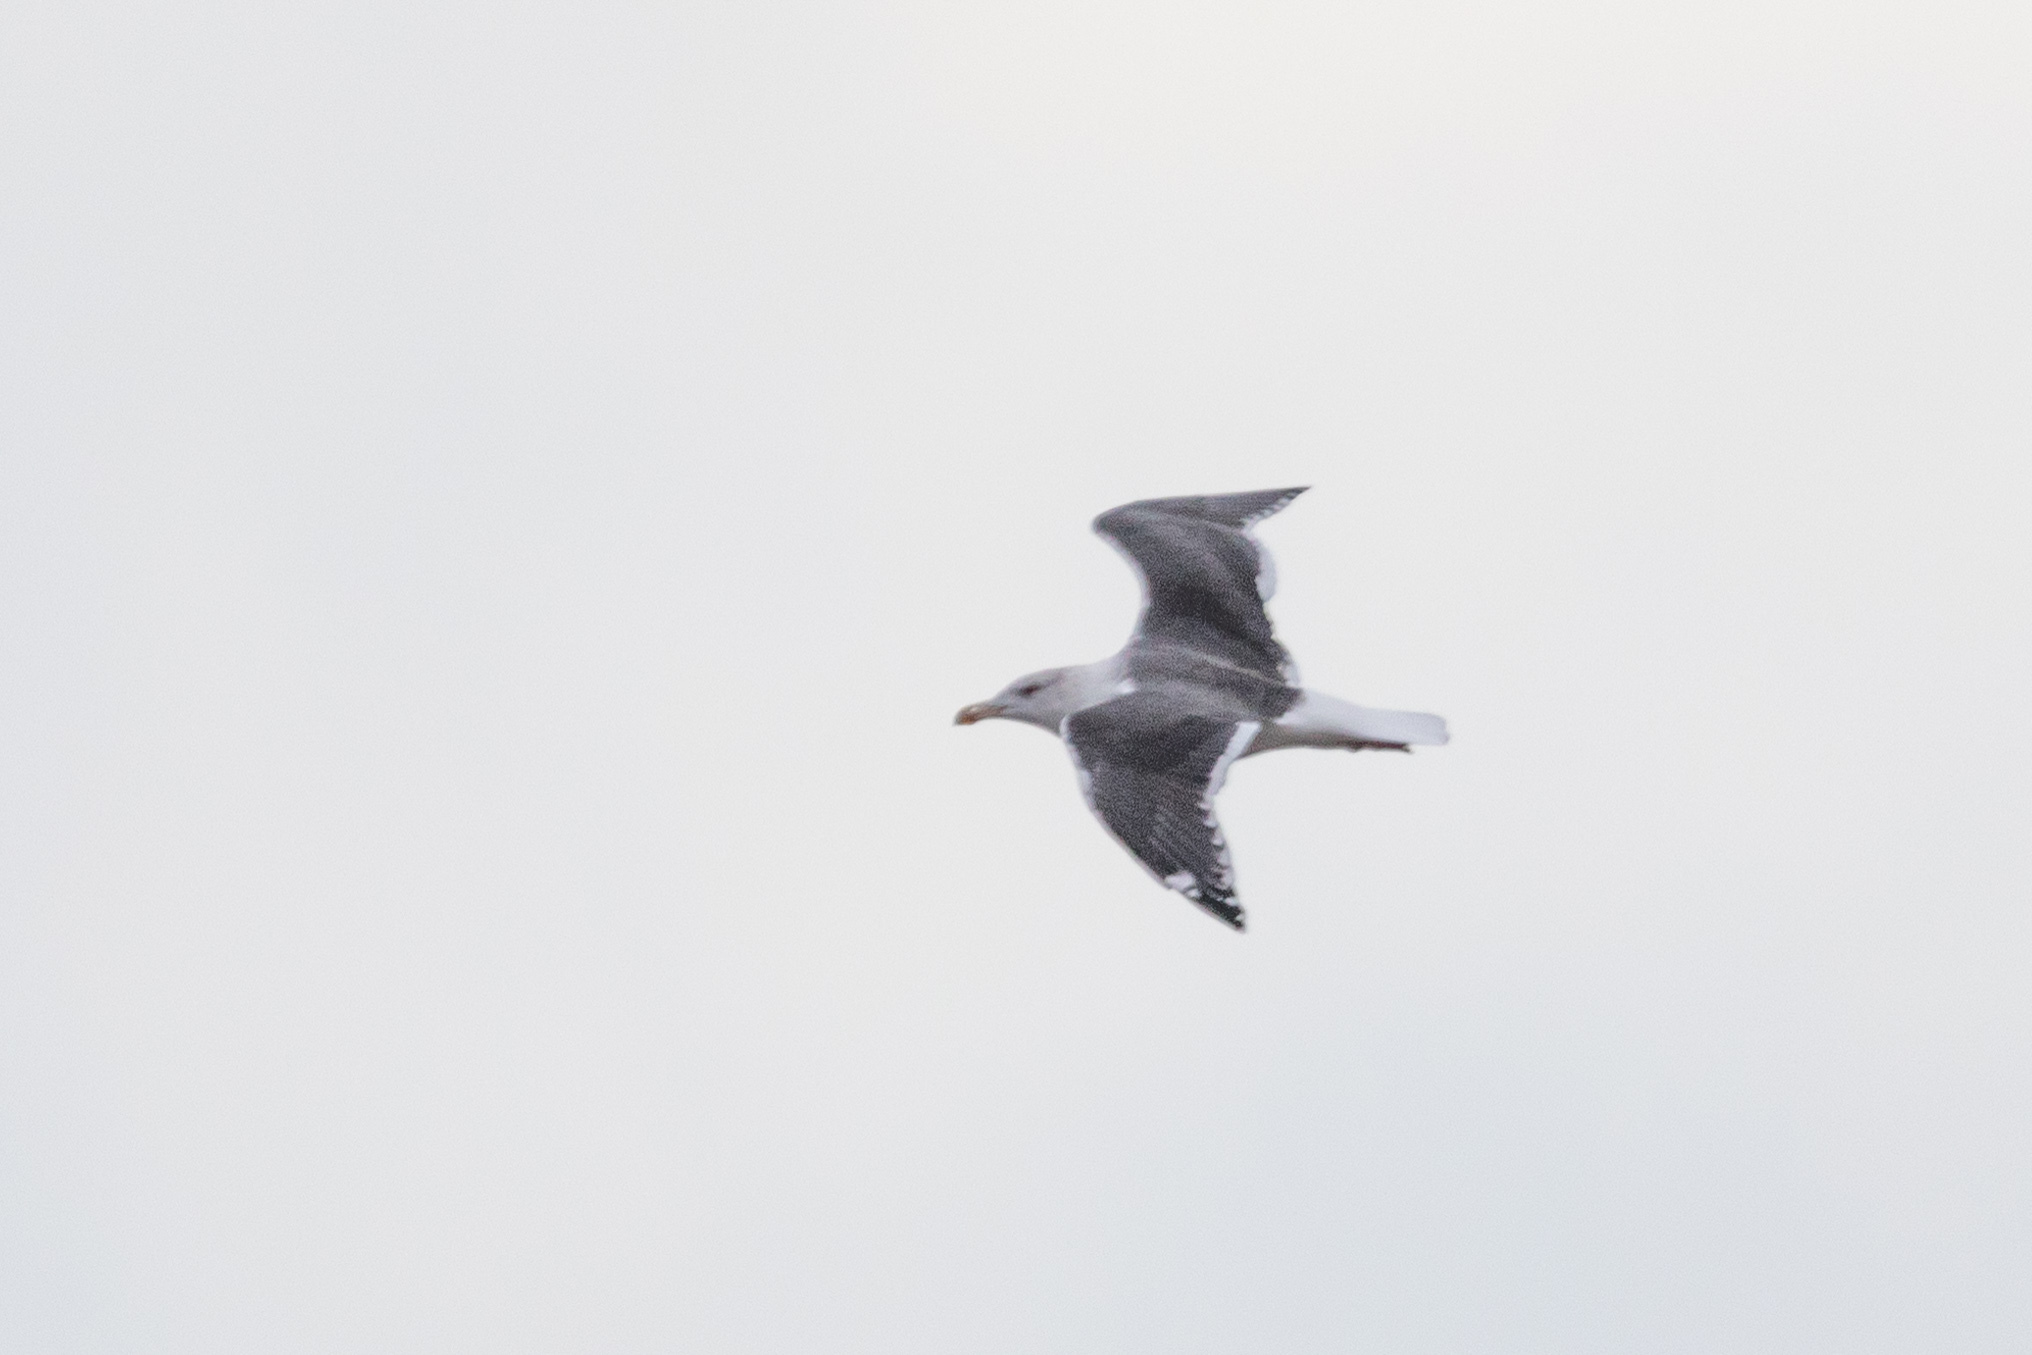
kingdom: Animalia
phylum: Chordata
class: Aves
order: Charadriiformes
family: Laridae
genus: Larus
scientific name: Larus marinus
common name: Great black-backed gull
